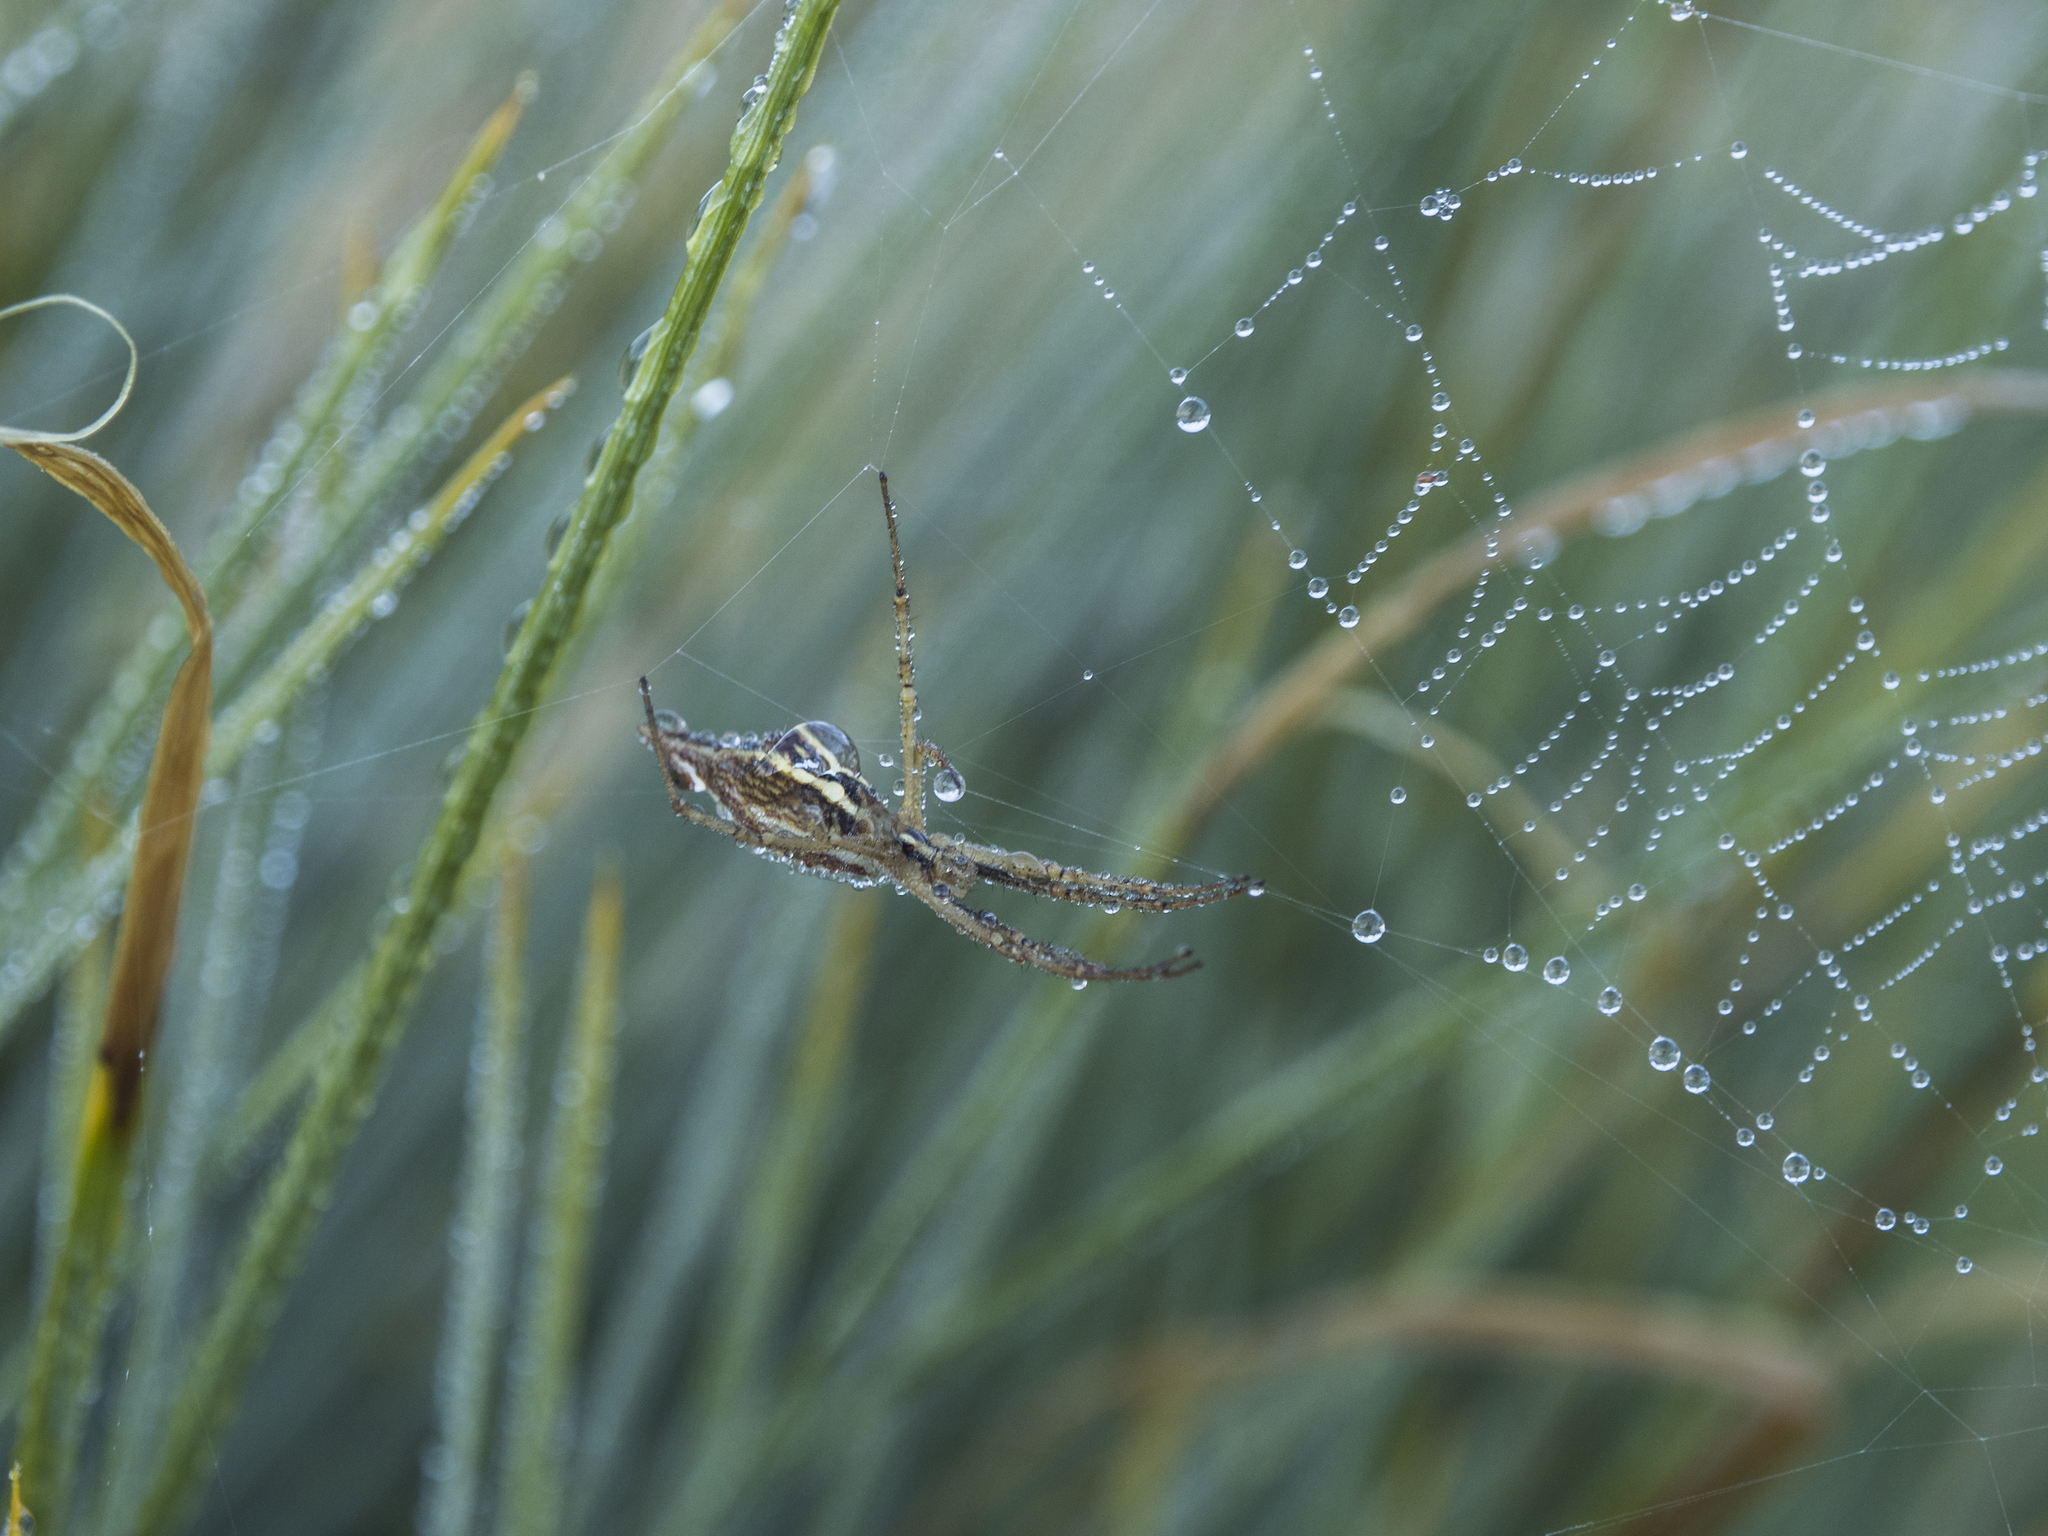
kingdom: Animalia
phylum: Arthropoda
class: Arachnida
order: Araneae
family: Araneidae
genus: Argiope
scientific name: Argiope protensa
